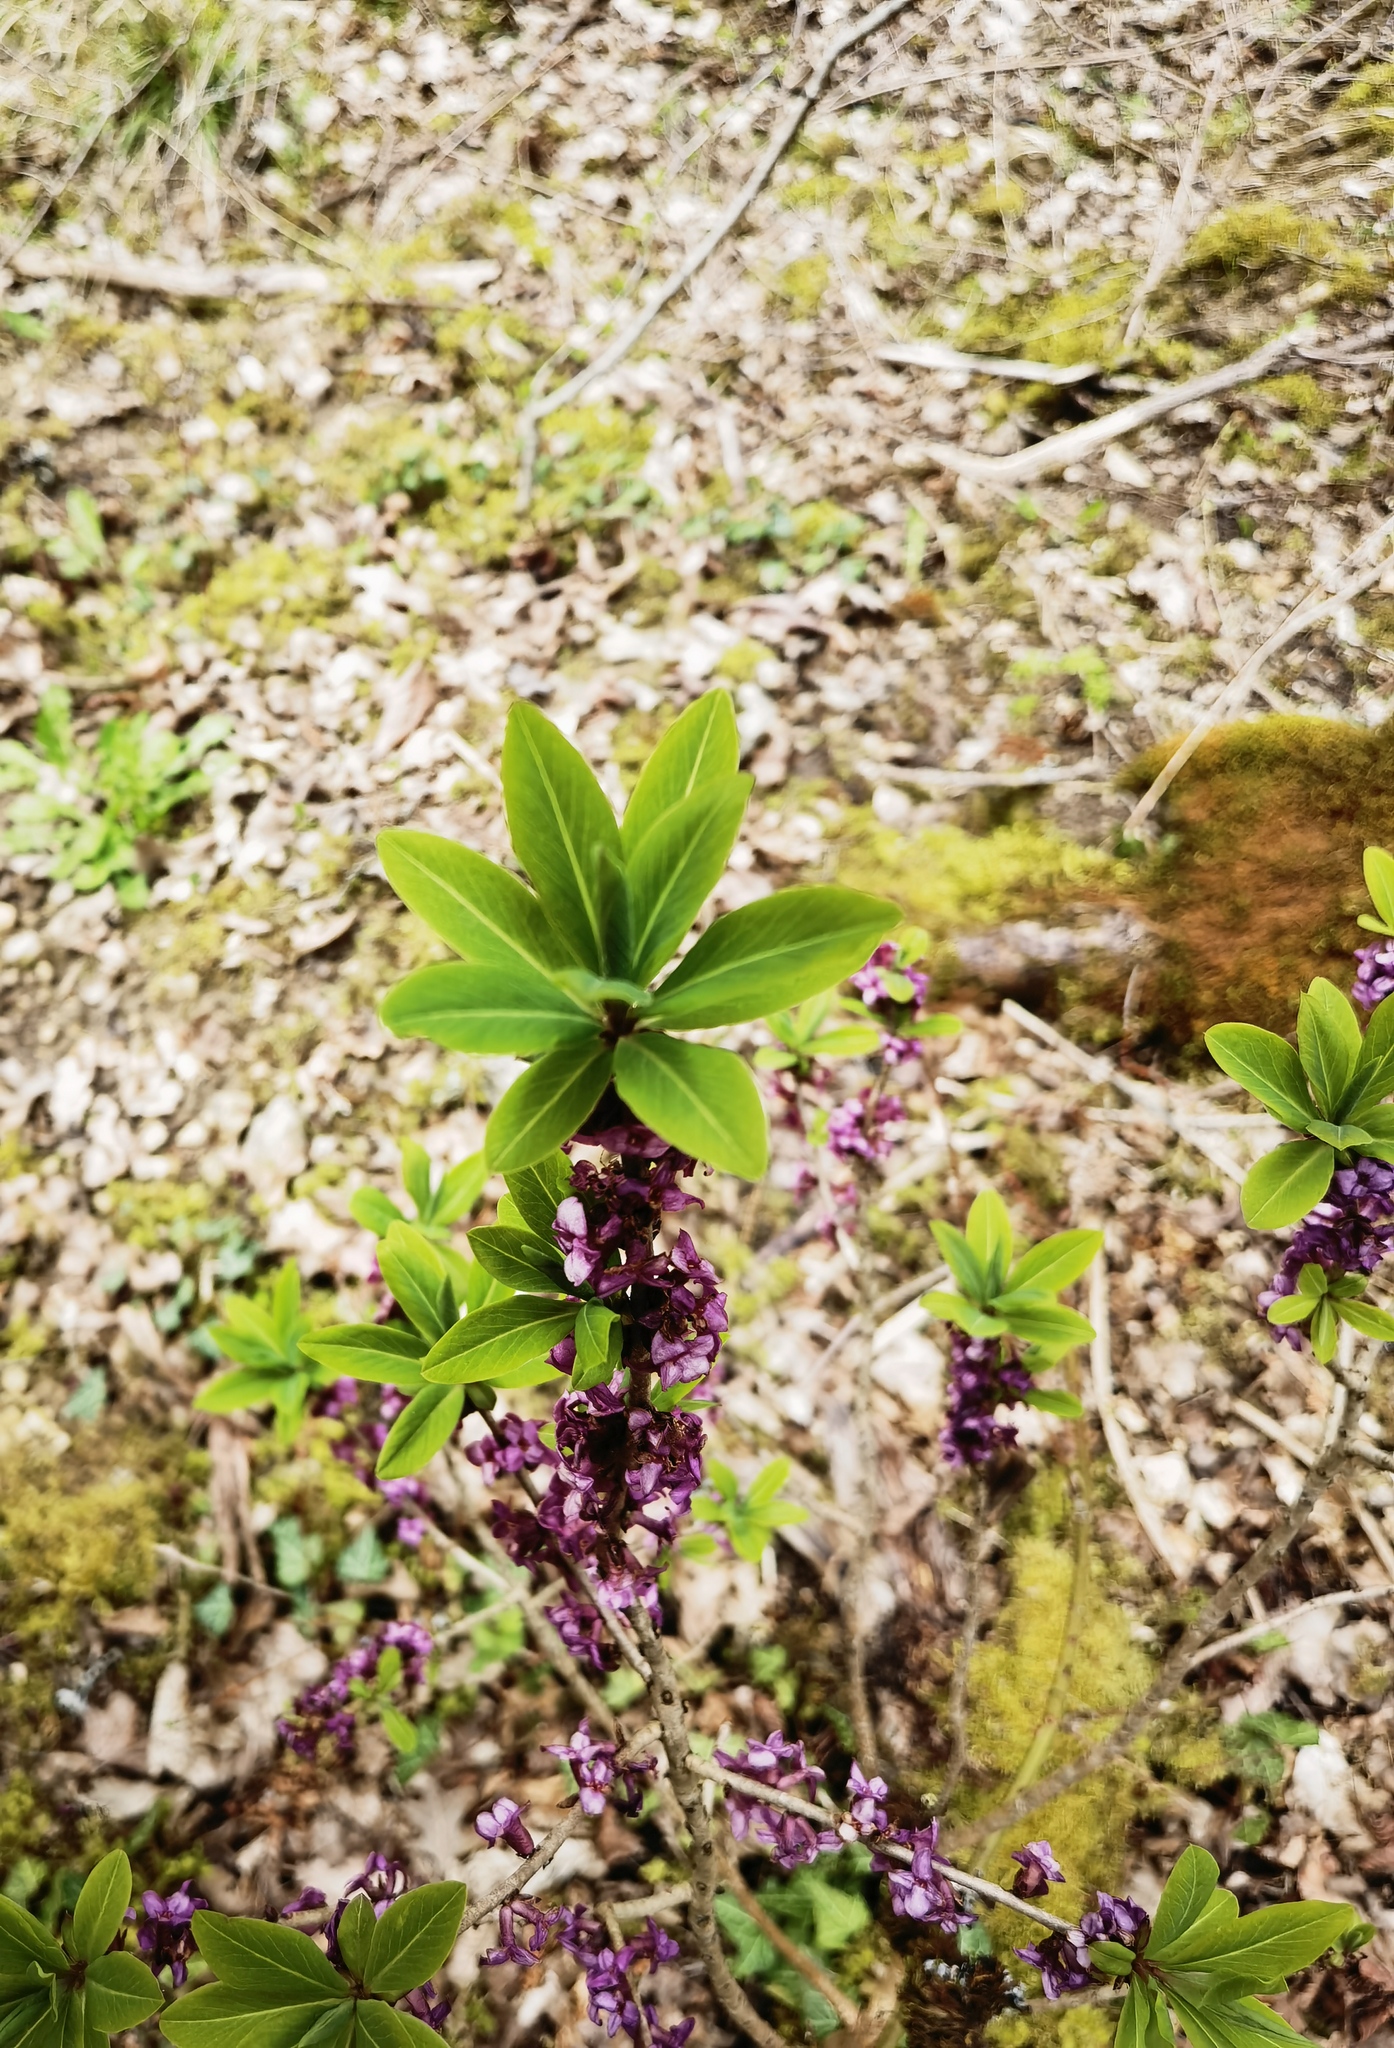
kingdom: Plantae
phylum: Tracheophyta
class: Magnoliopsida
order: Malvales
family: Thymelaeaceae
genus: Daphne
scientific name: Daphne mezereum
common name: Mezereon
